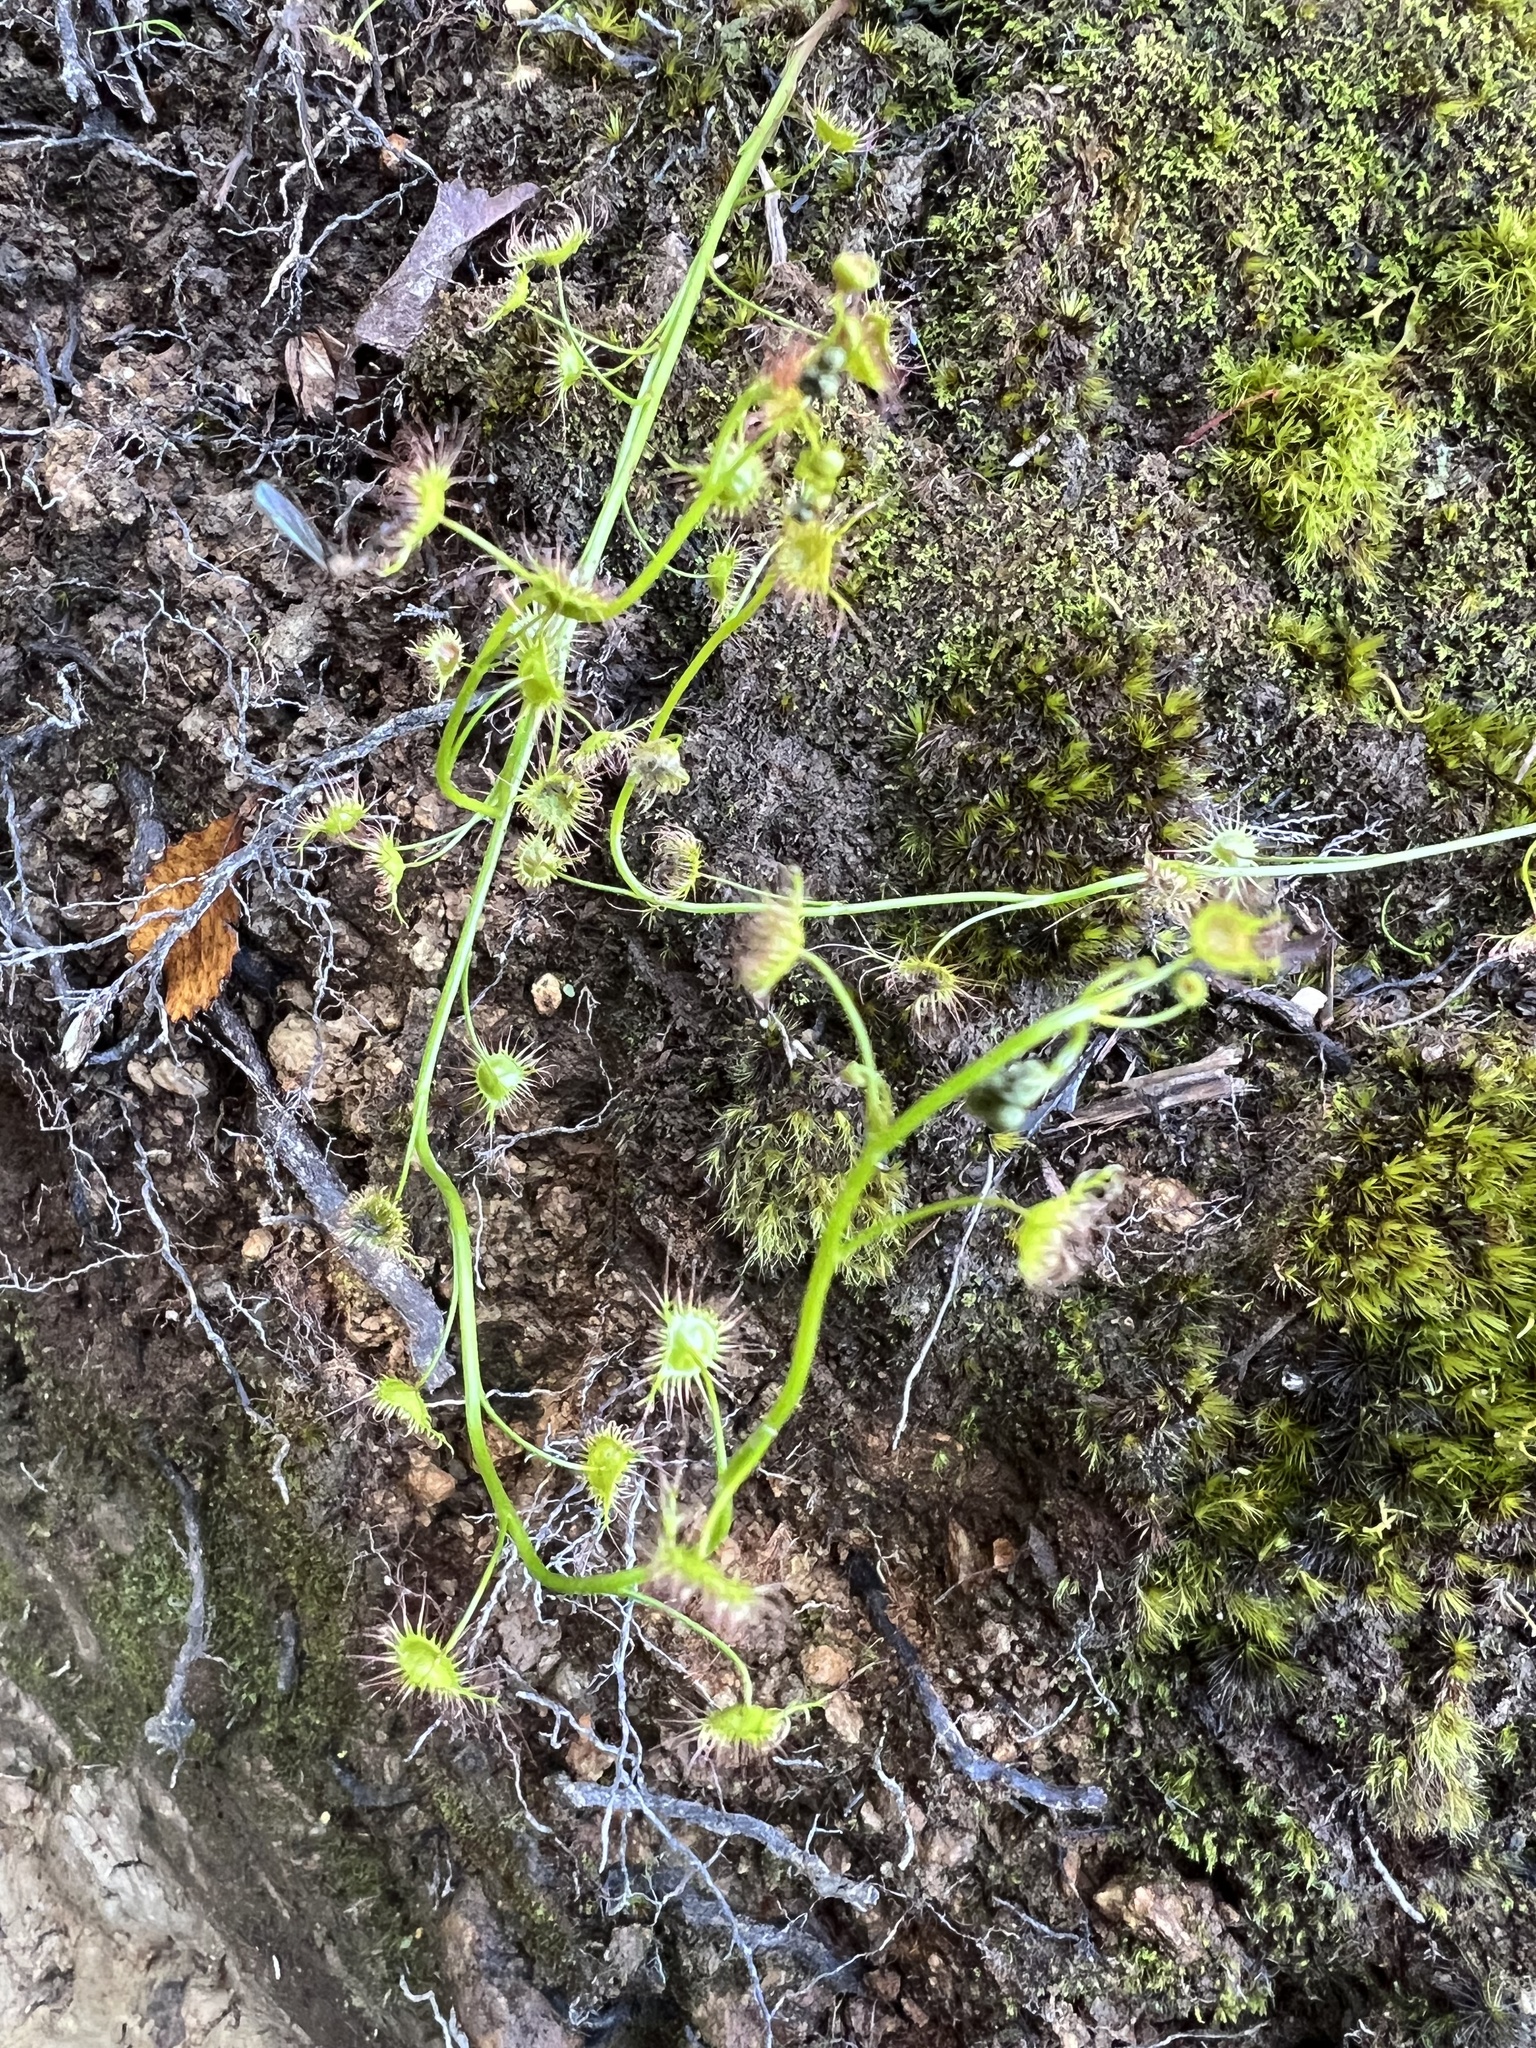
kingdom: Plantae
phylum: Tracheophyta
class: Magnoliopsida
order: Caryophyllales
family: Droseraceae
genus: Drosera
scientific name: Drosera peltata
